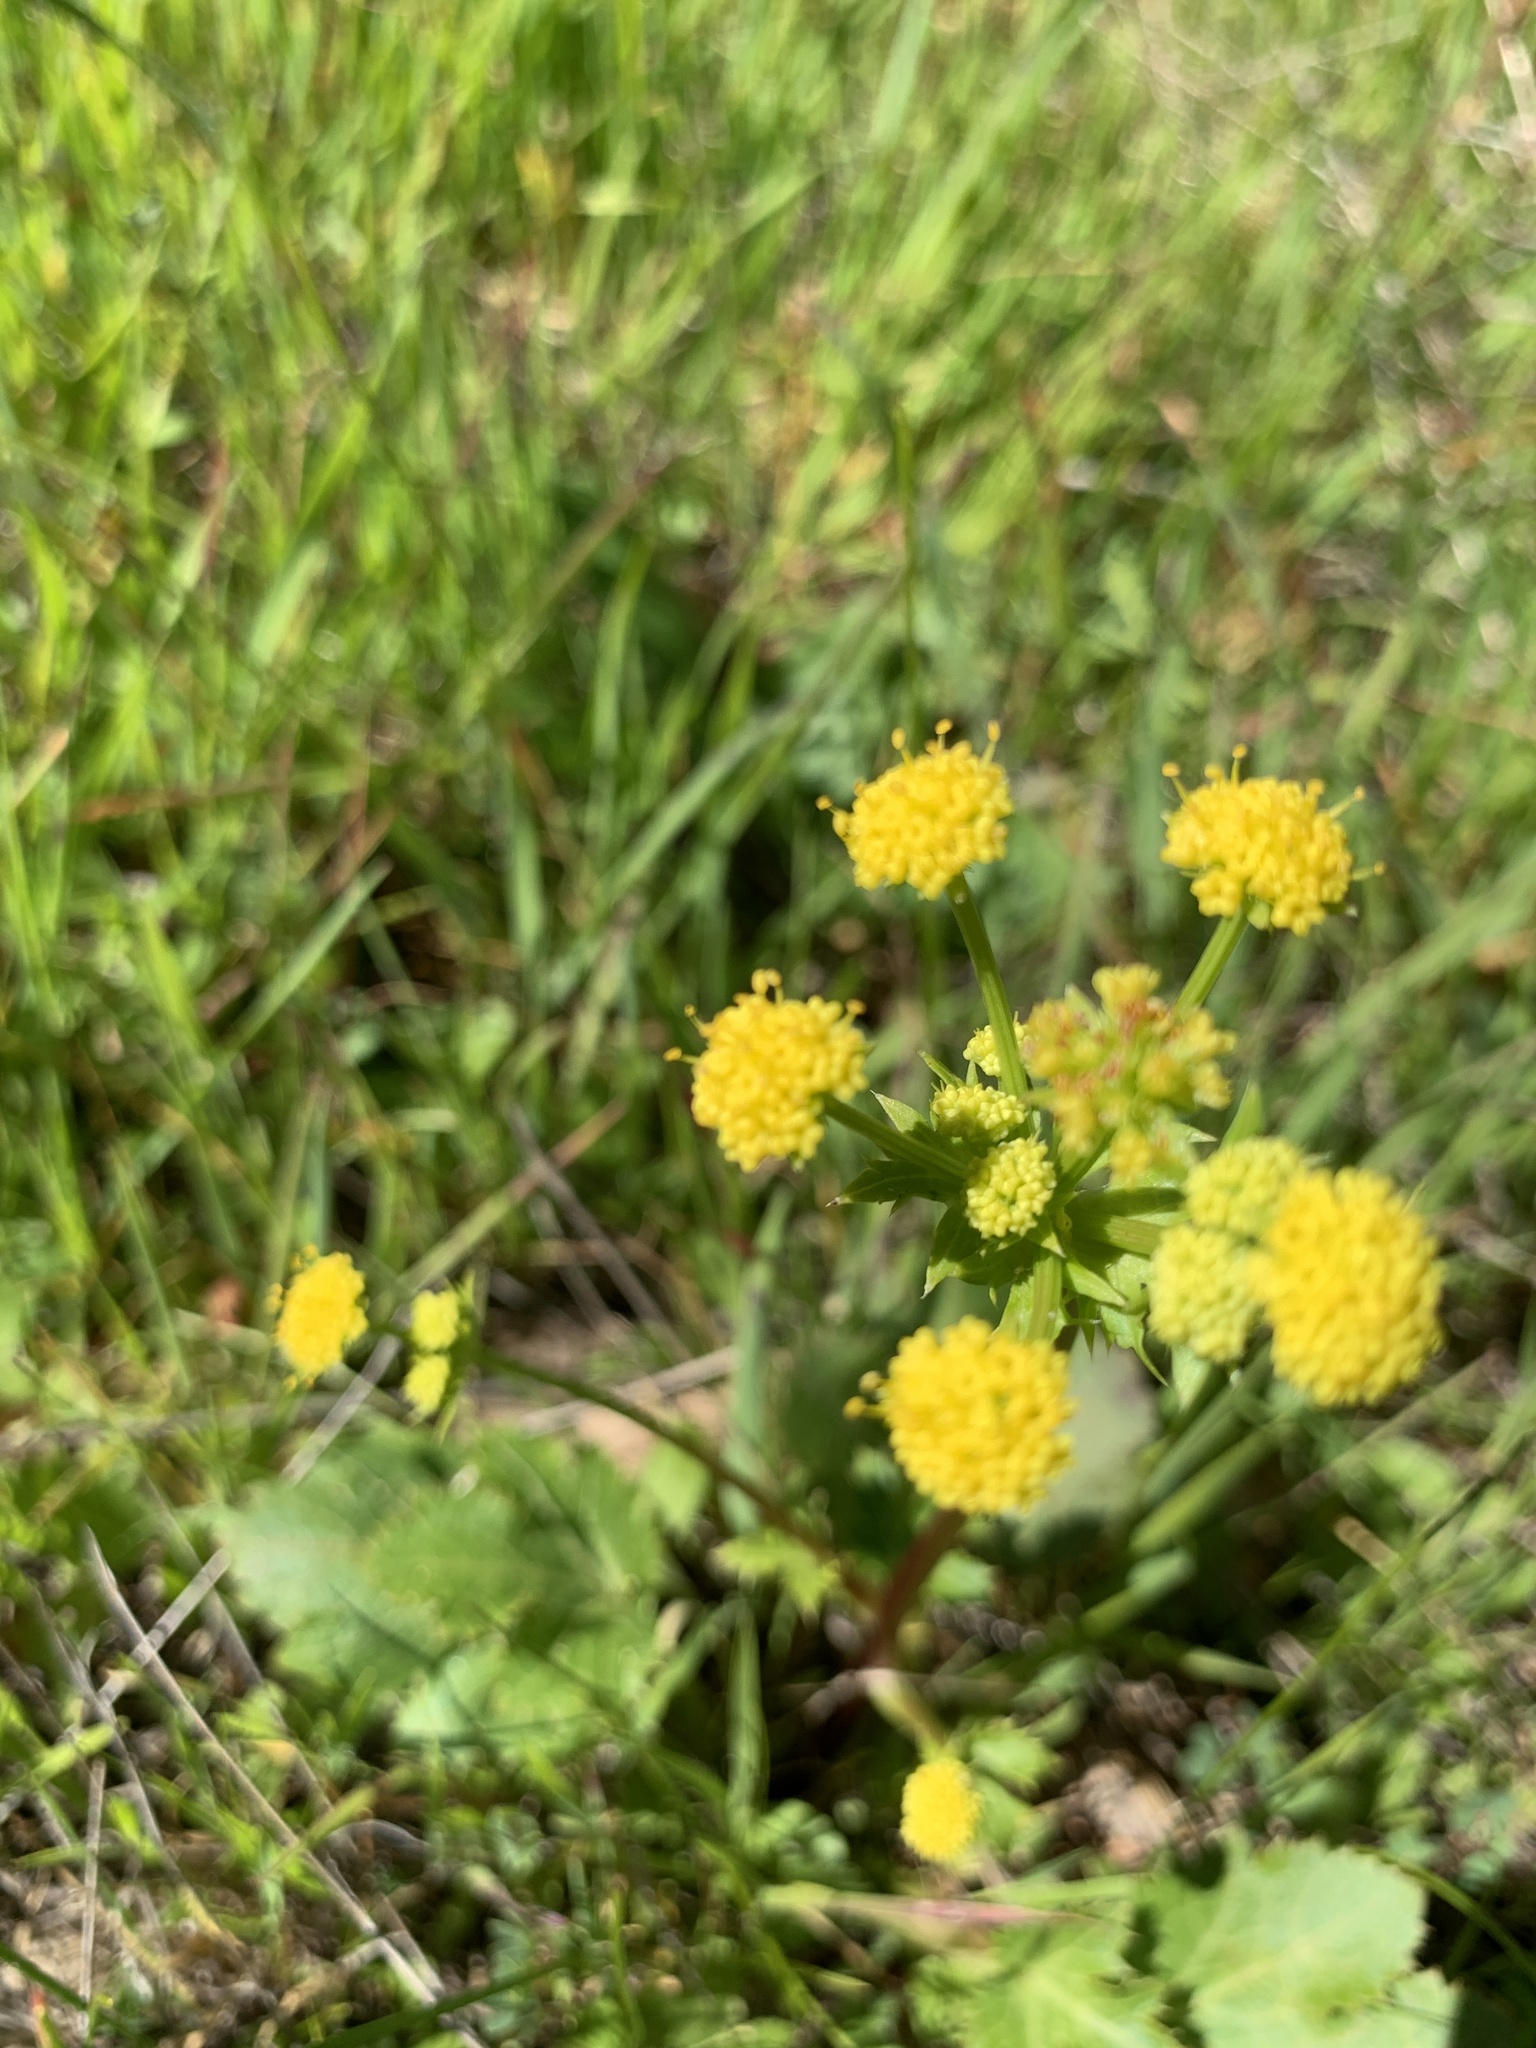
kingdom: Plantae
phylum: Tracheophyta
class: Magnoliopsida
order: Apiales
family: Apiaceae
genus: Sanicula
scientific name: Sanicula crassicaulis
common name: Western snakeroot
